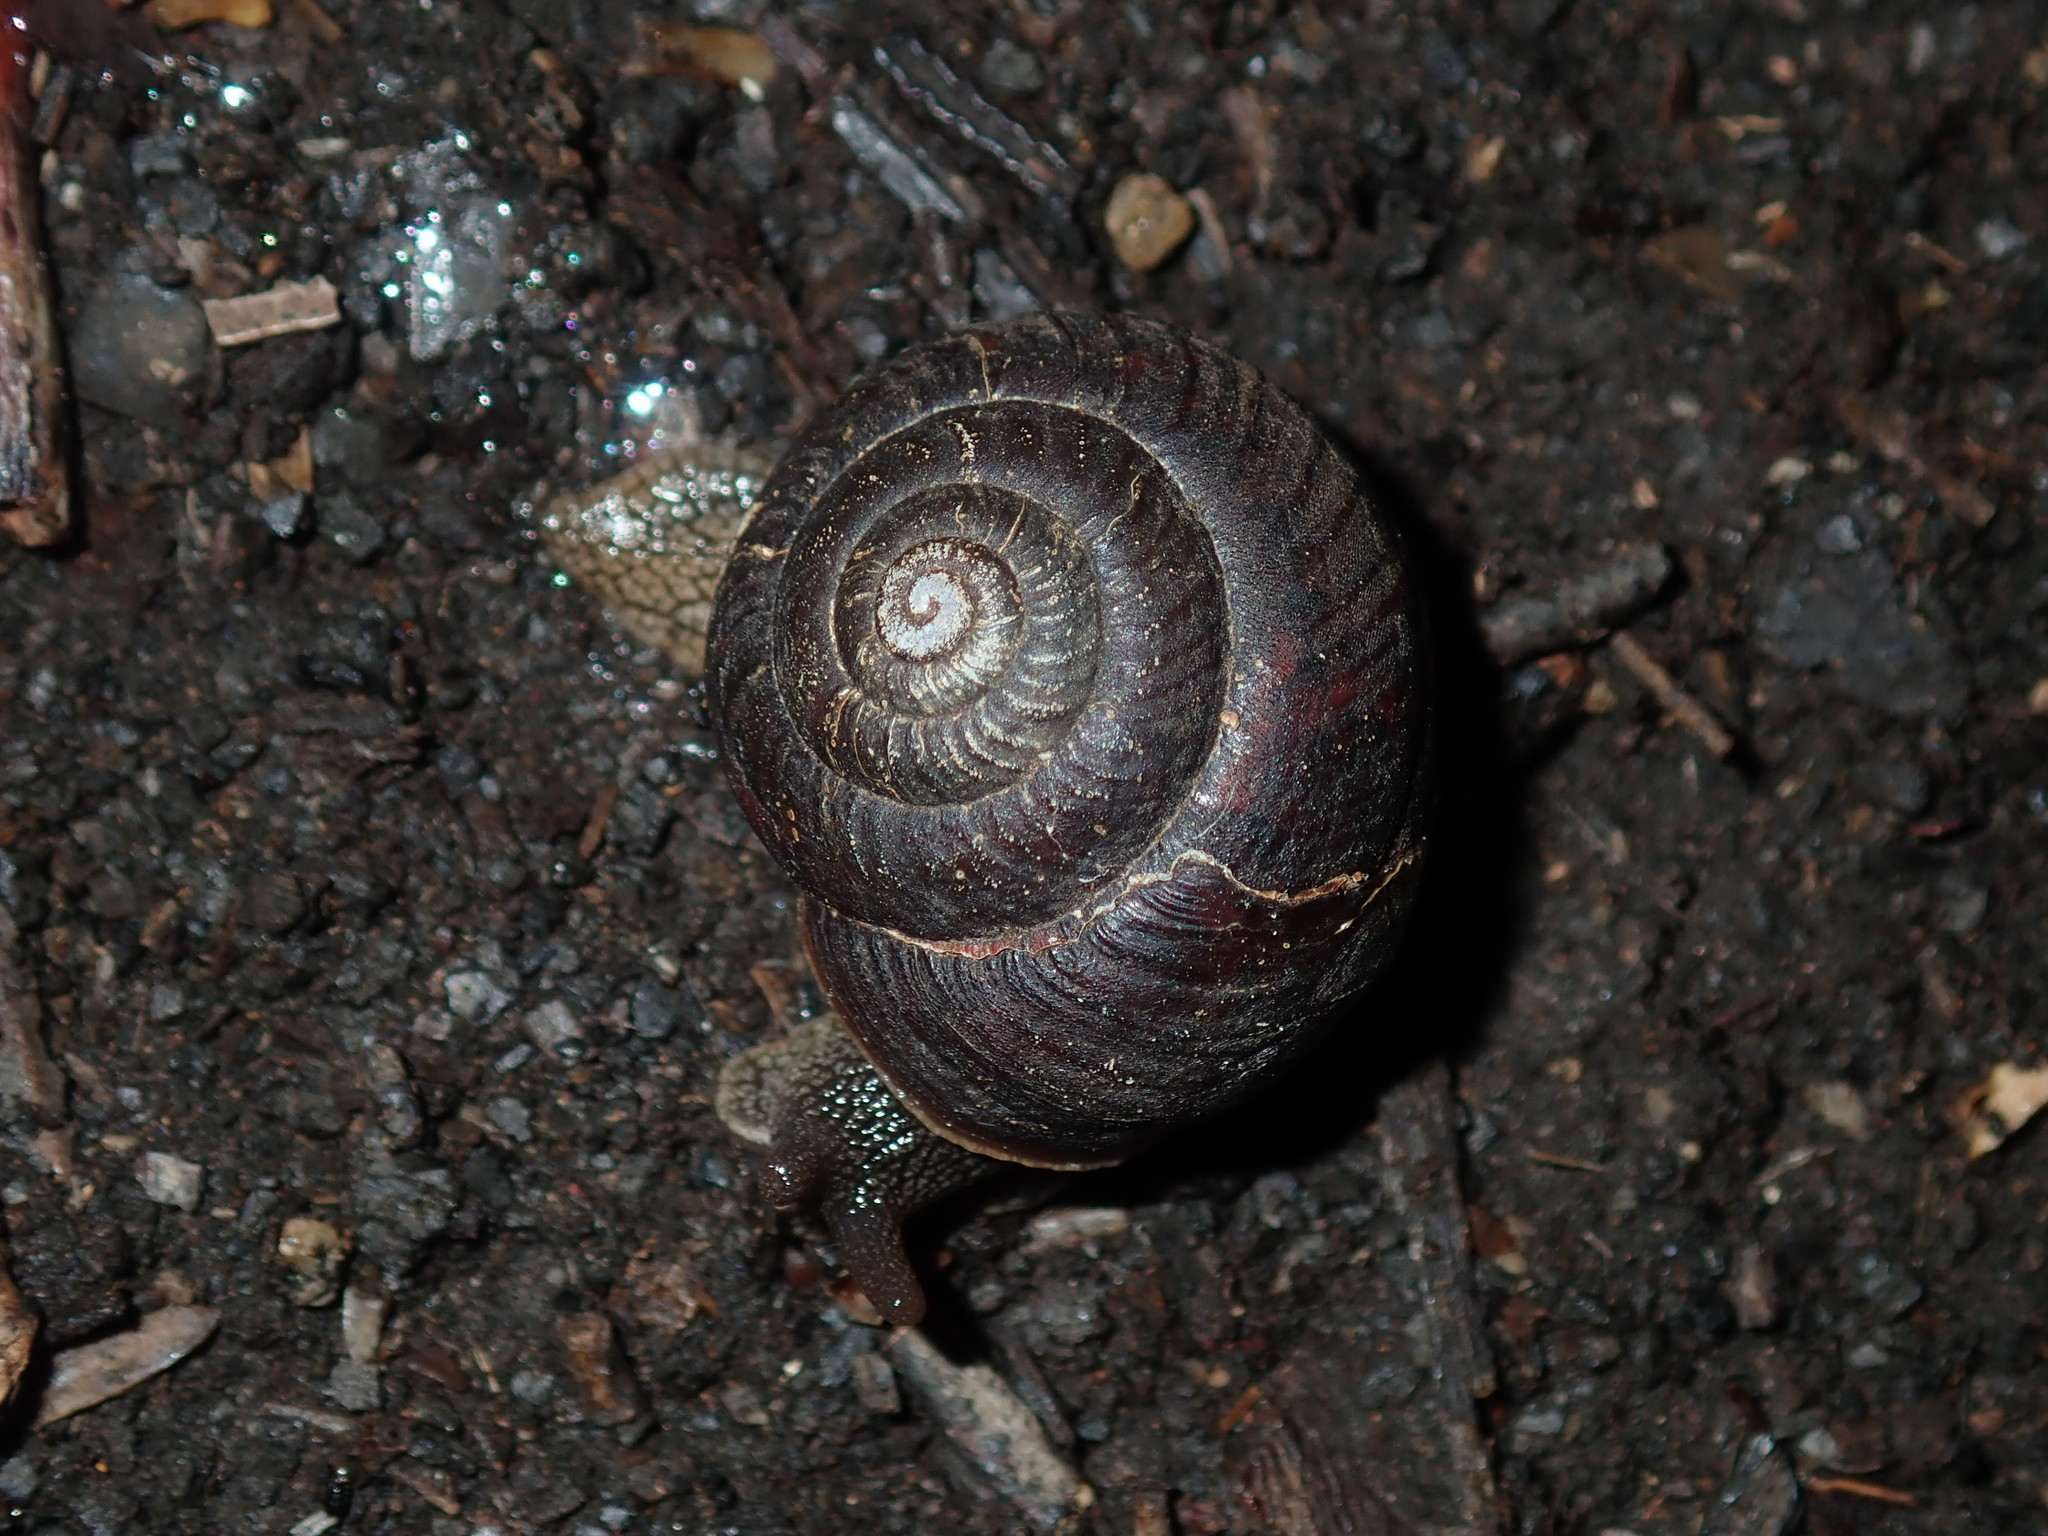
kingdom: Animalia
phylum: Mollusca
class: Gastropoda
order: Stylommatophora
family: Camaenidae
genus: Sauroconcha
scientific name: Sauroconcha sheai
